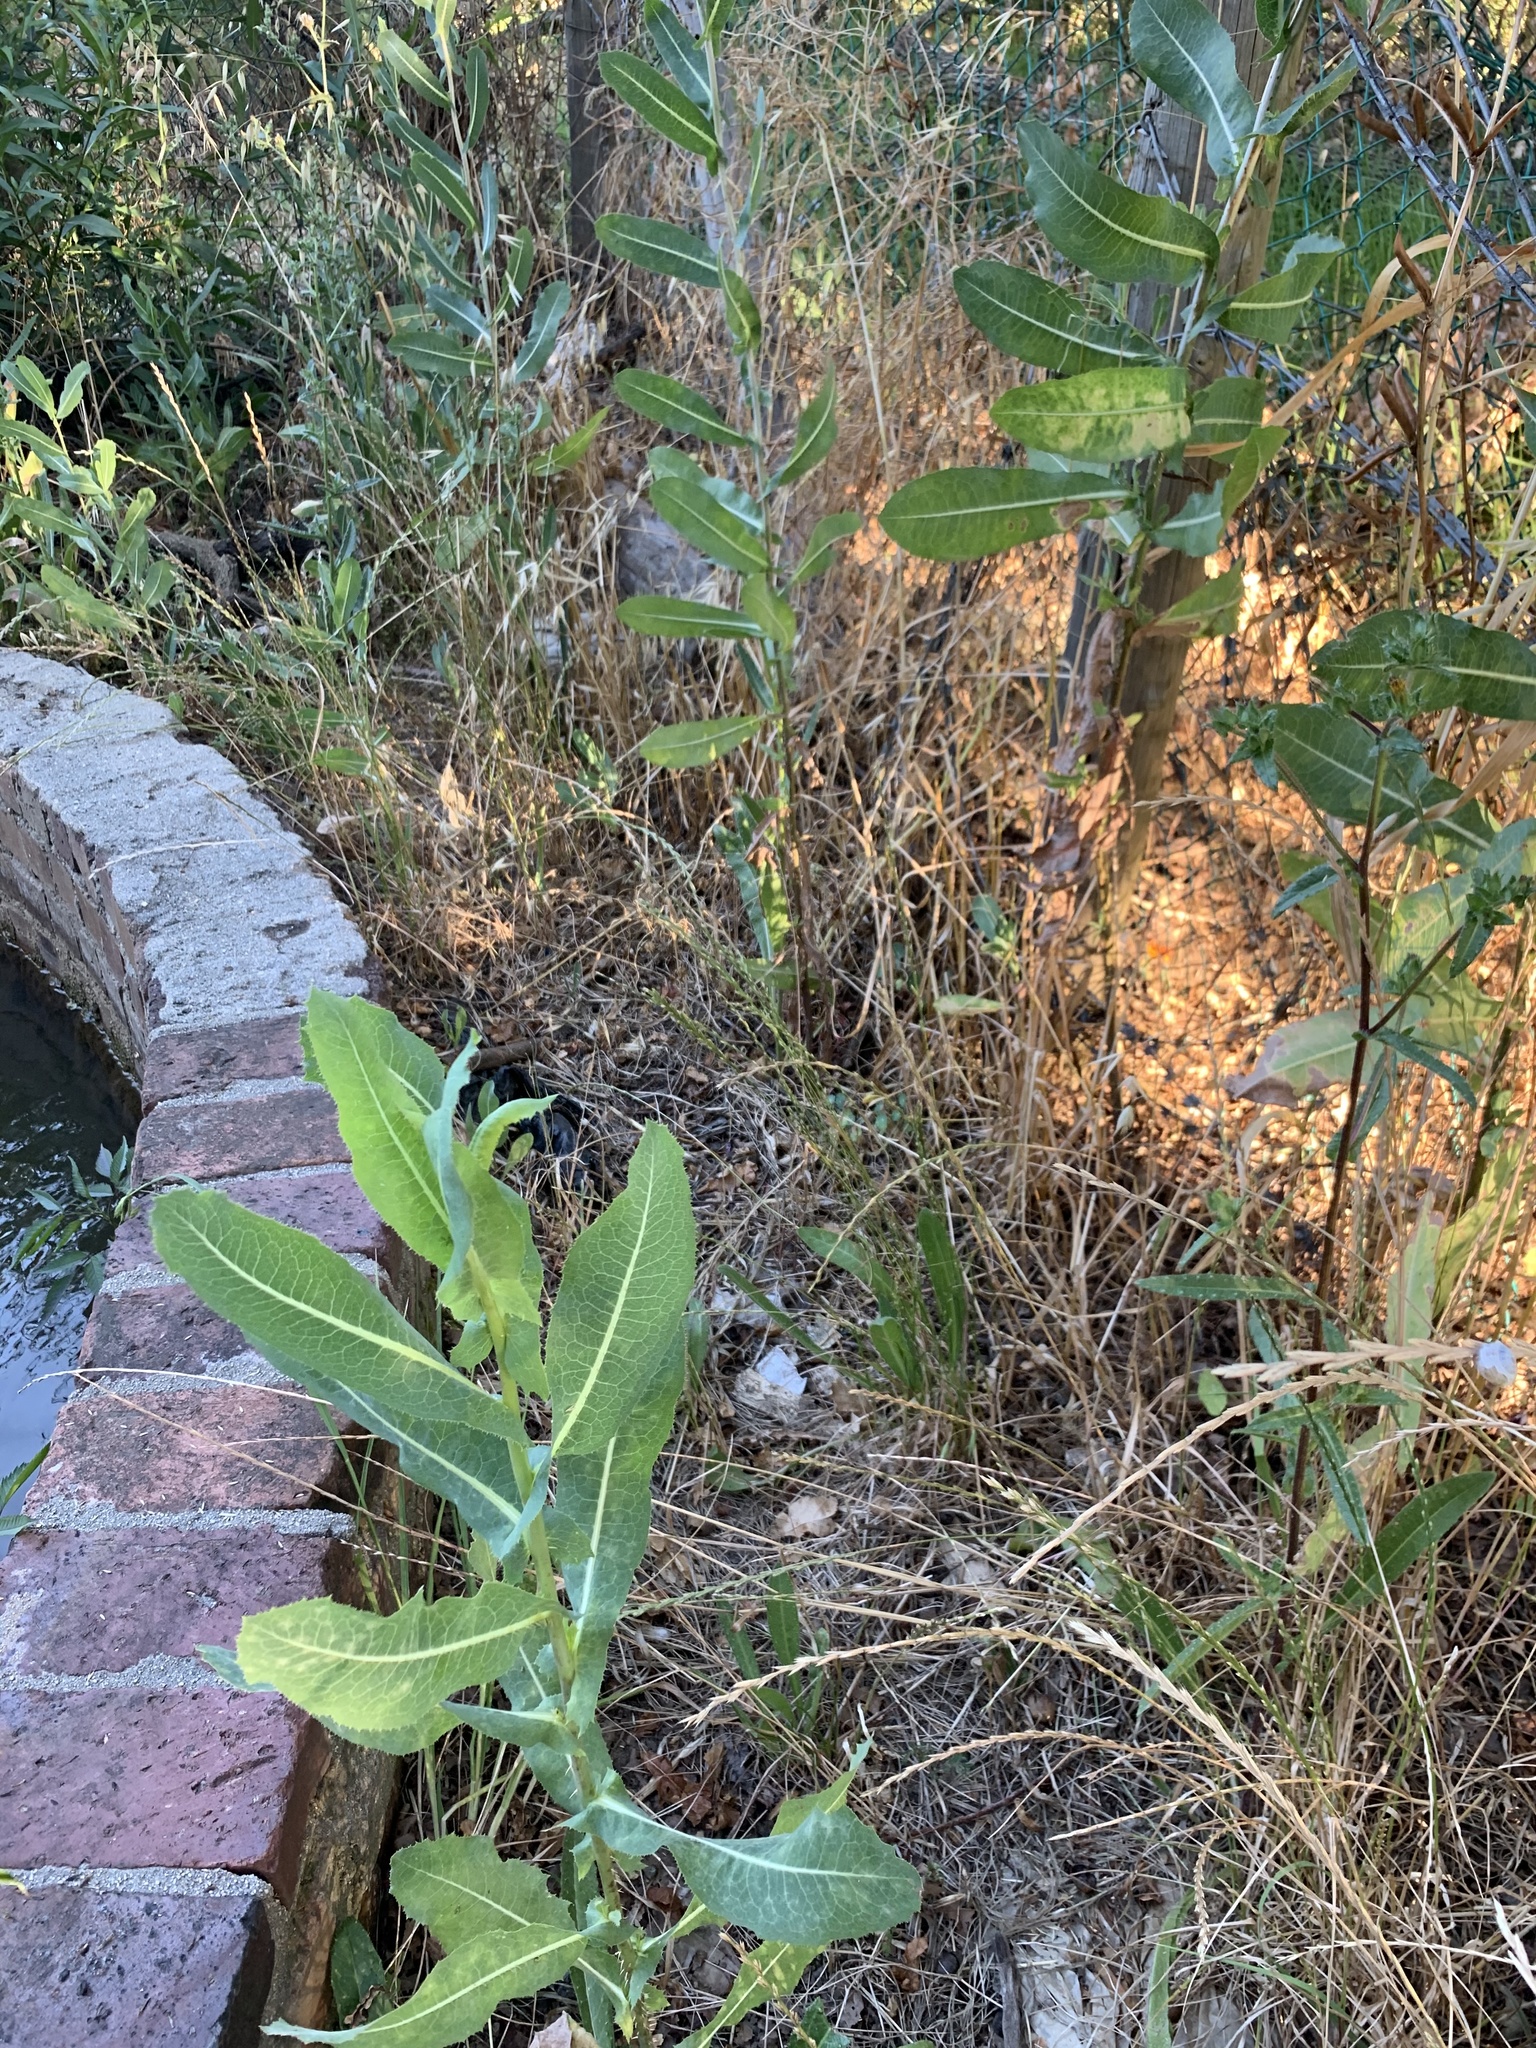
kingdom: Plantae
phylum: Tracheophyta
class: Magnoliopsida
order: Asterales
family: Asteraceae
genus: Lactuca
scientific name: Lactuca serriola
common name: Prickly lettuce
